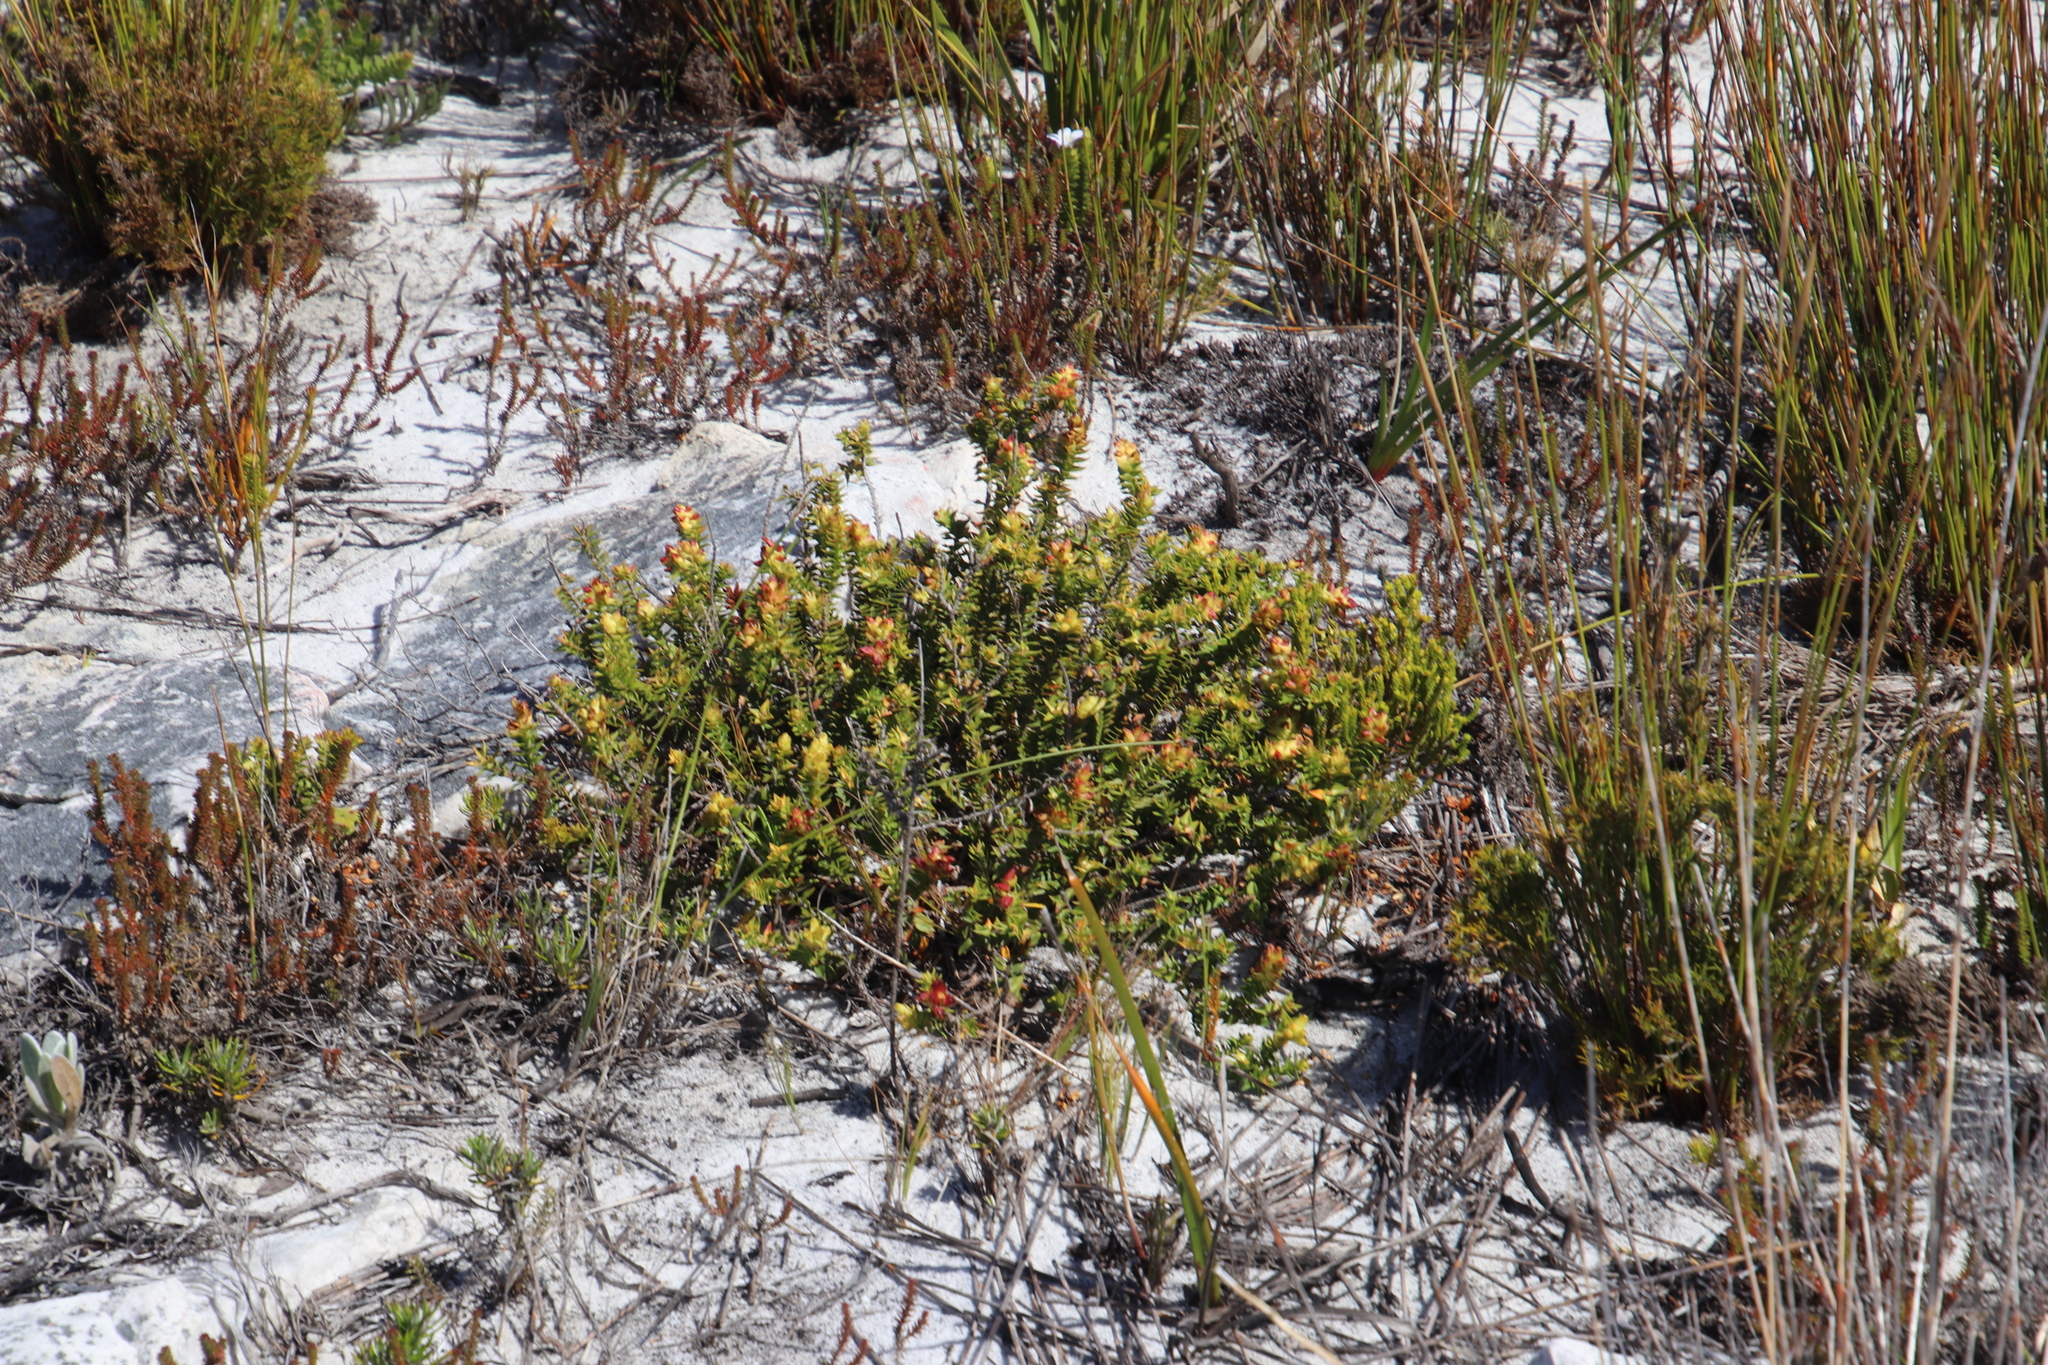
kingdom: Plantae
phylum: Tracheophyta
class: Magnoliopsida
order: Myrtales
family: Penaeaceae
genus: Penaea
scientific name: Penaea mucronata
